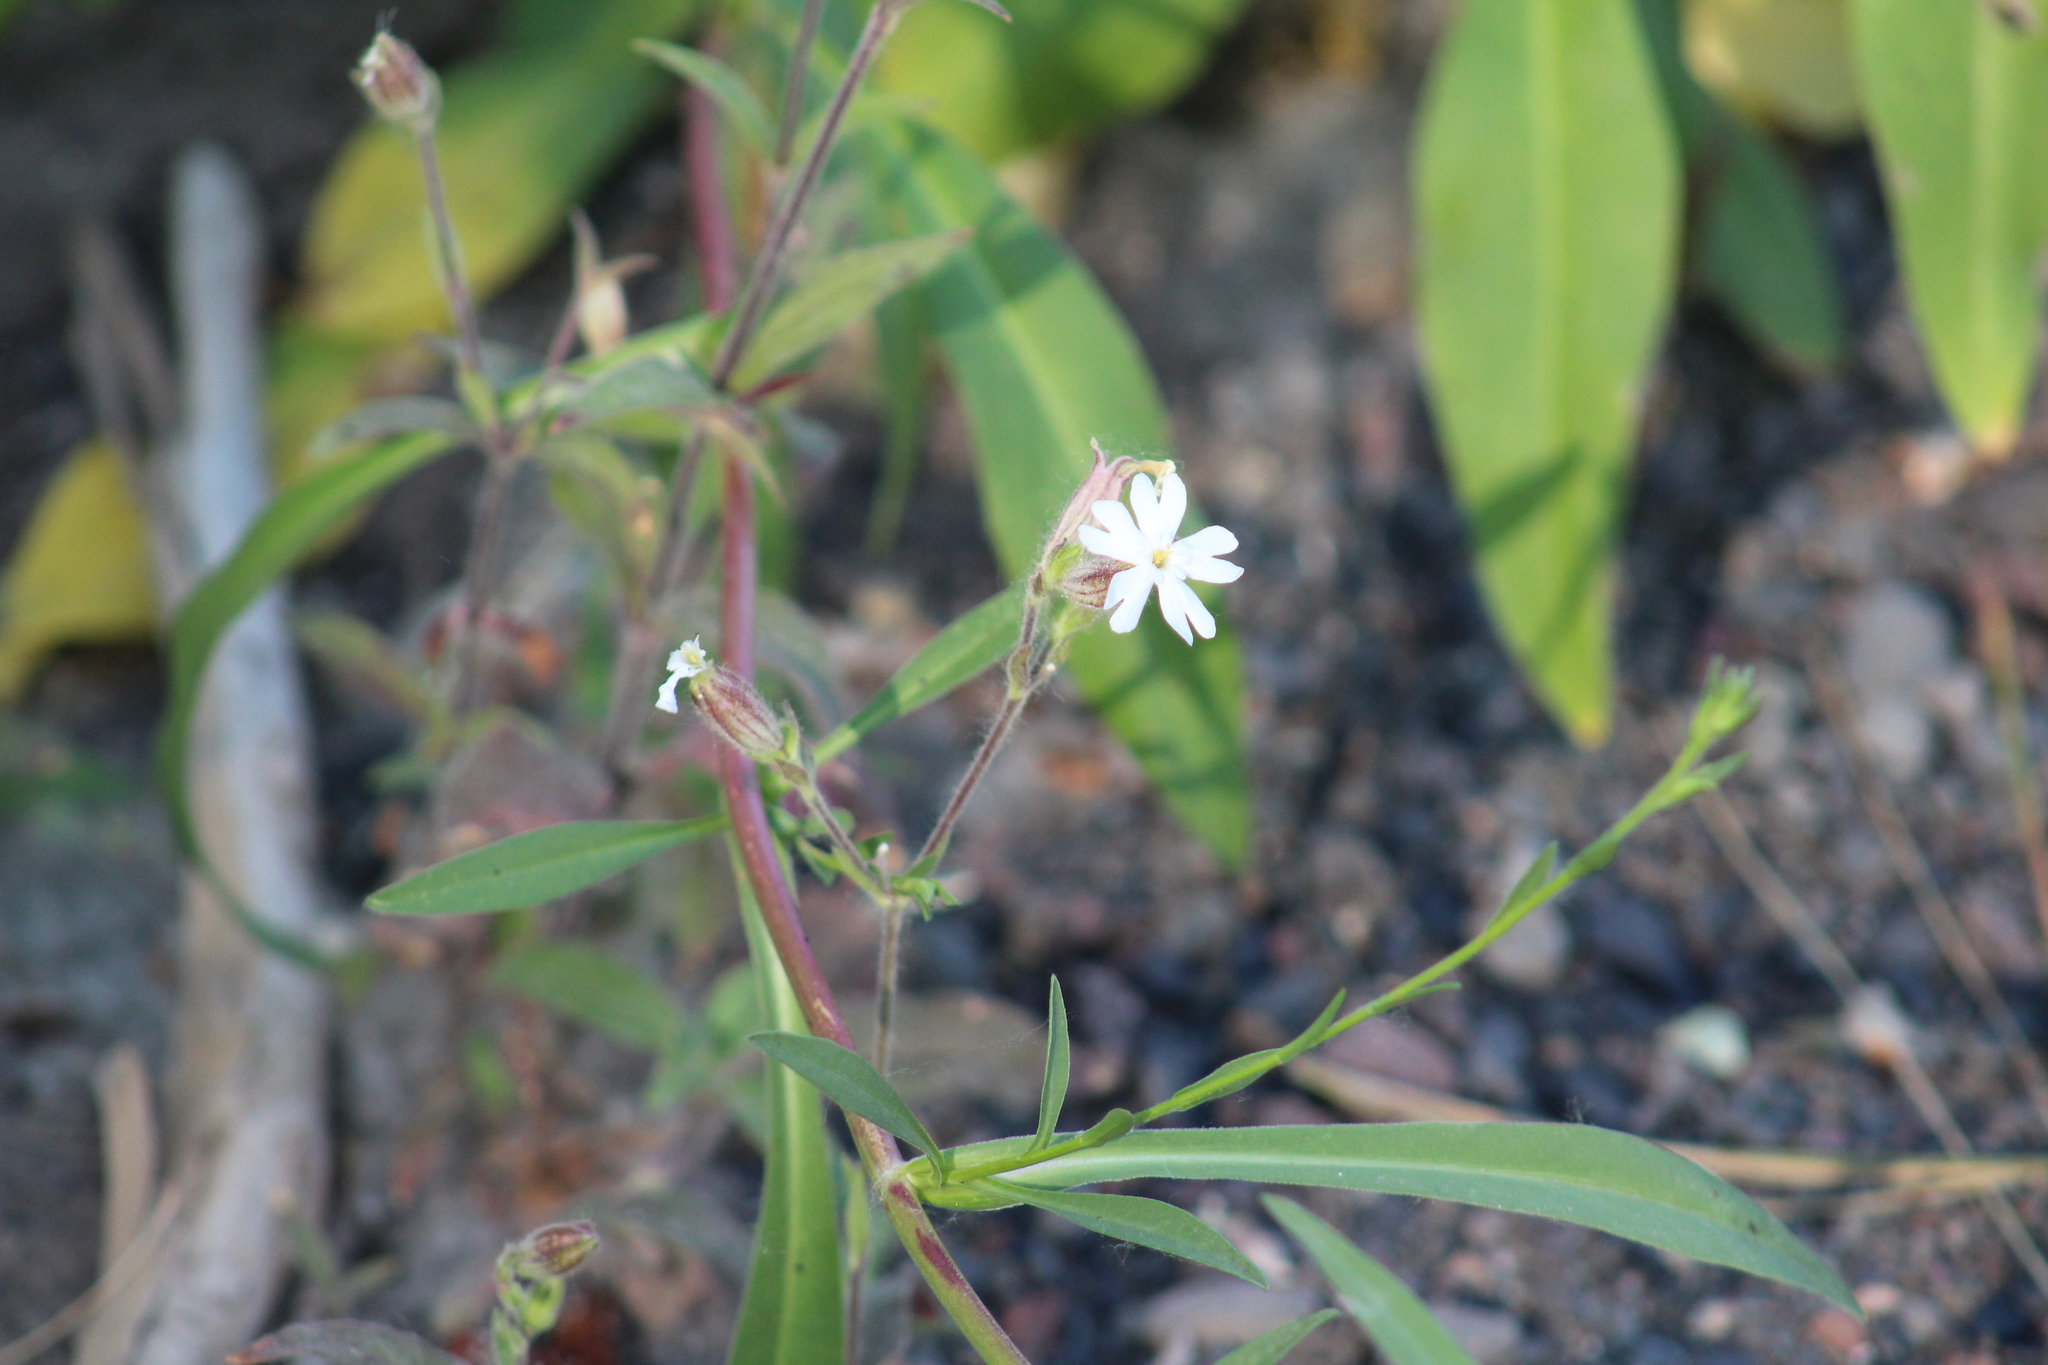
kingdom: Plantae
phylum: Tracheophyta
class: Magnoliopsida
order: Caryophyllales
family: Caryophyllaceae
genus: Silene
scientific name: Silene latifolia
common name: White campion
